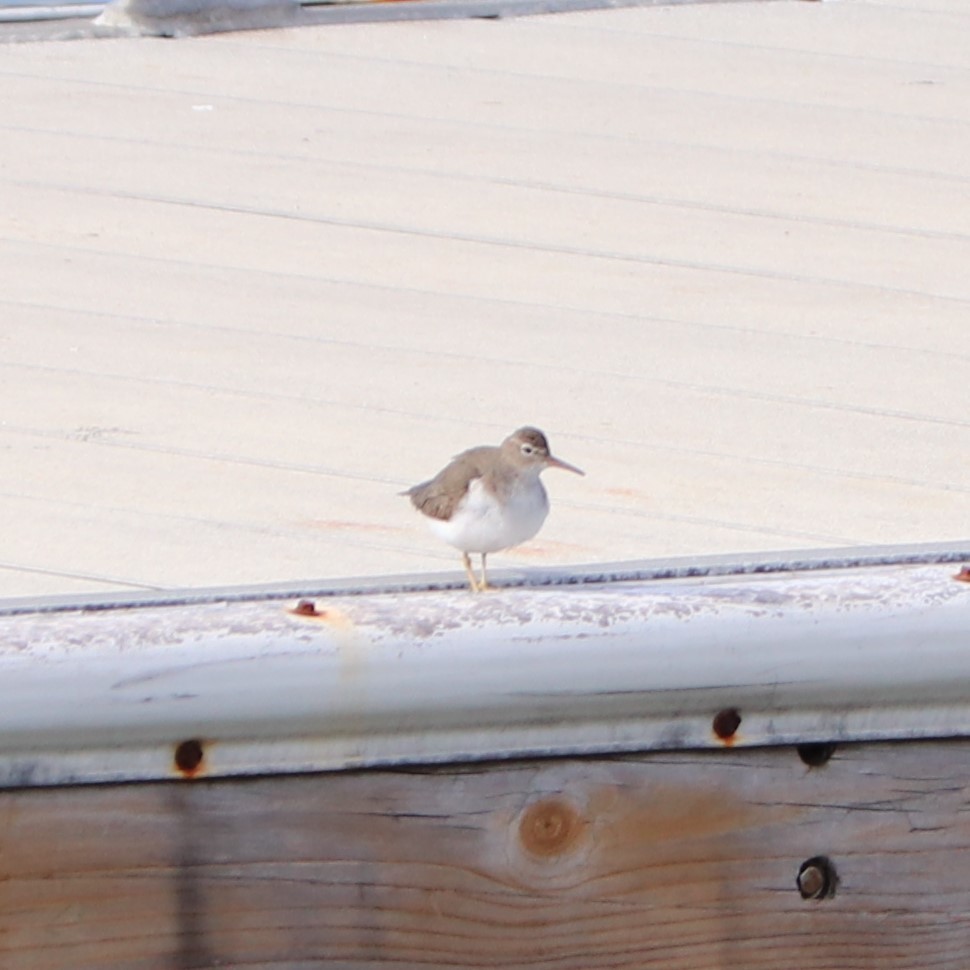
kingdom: Animalia
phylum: Chordata
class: Aves
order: Charadriiformes
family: Scolopacidae
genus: Actitis
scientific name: Actitis macularius
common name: Spotted sandpiper
